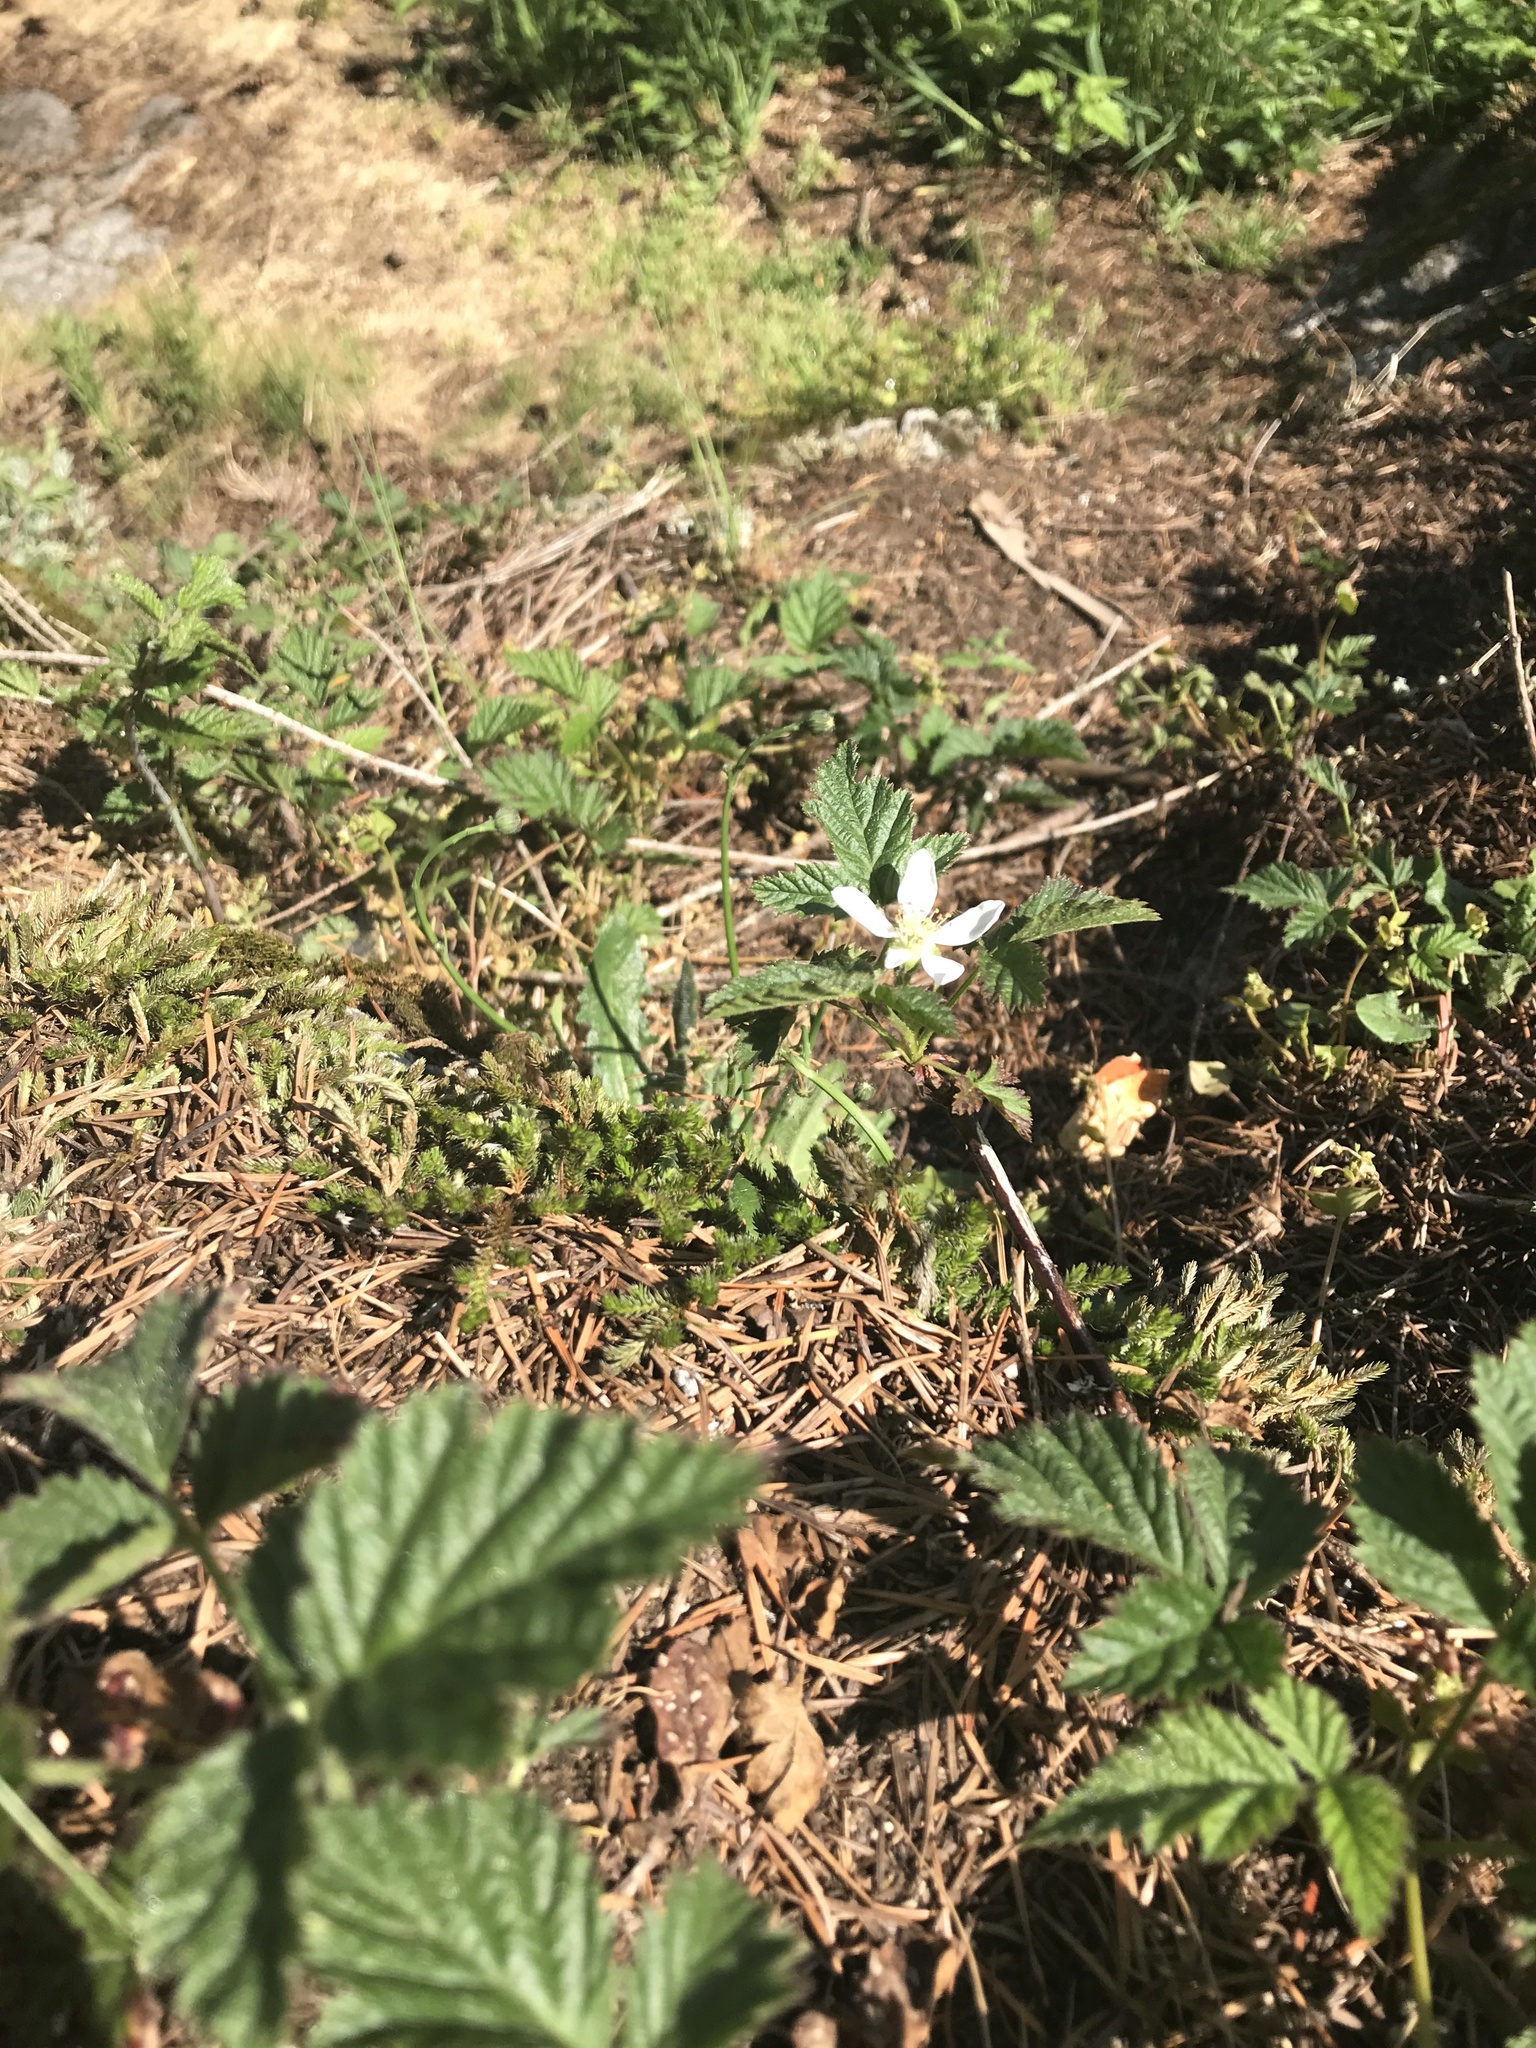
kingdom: Plantae
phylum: Tracheophyta
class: Magnoliopsida
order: Rosales
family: Rosaceae
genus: Rubus
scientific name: Rubus ursinus
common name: Pacific blackberry
